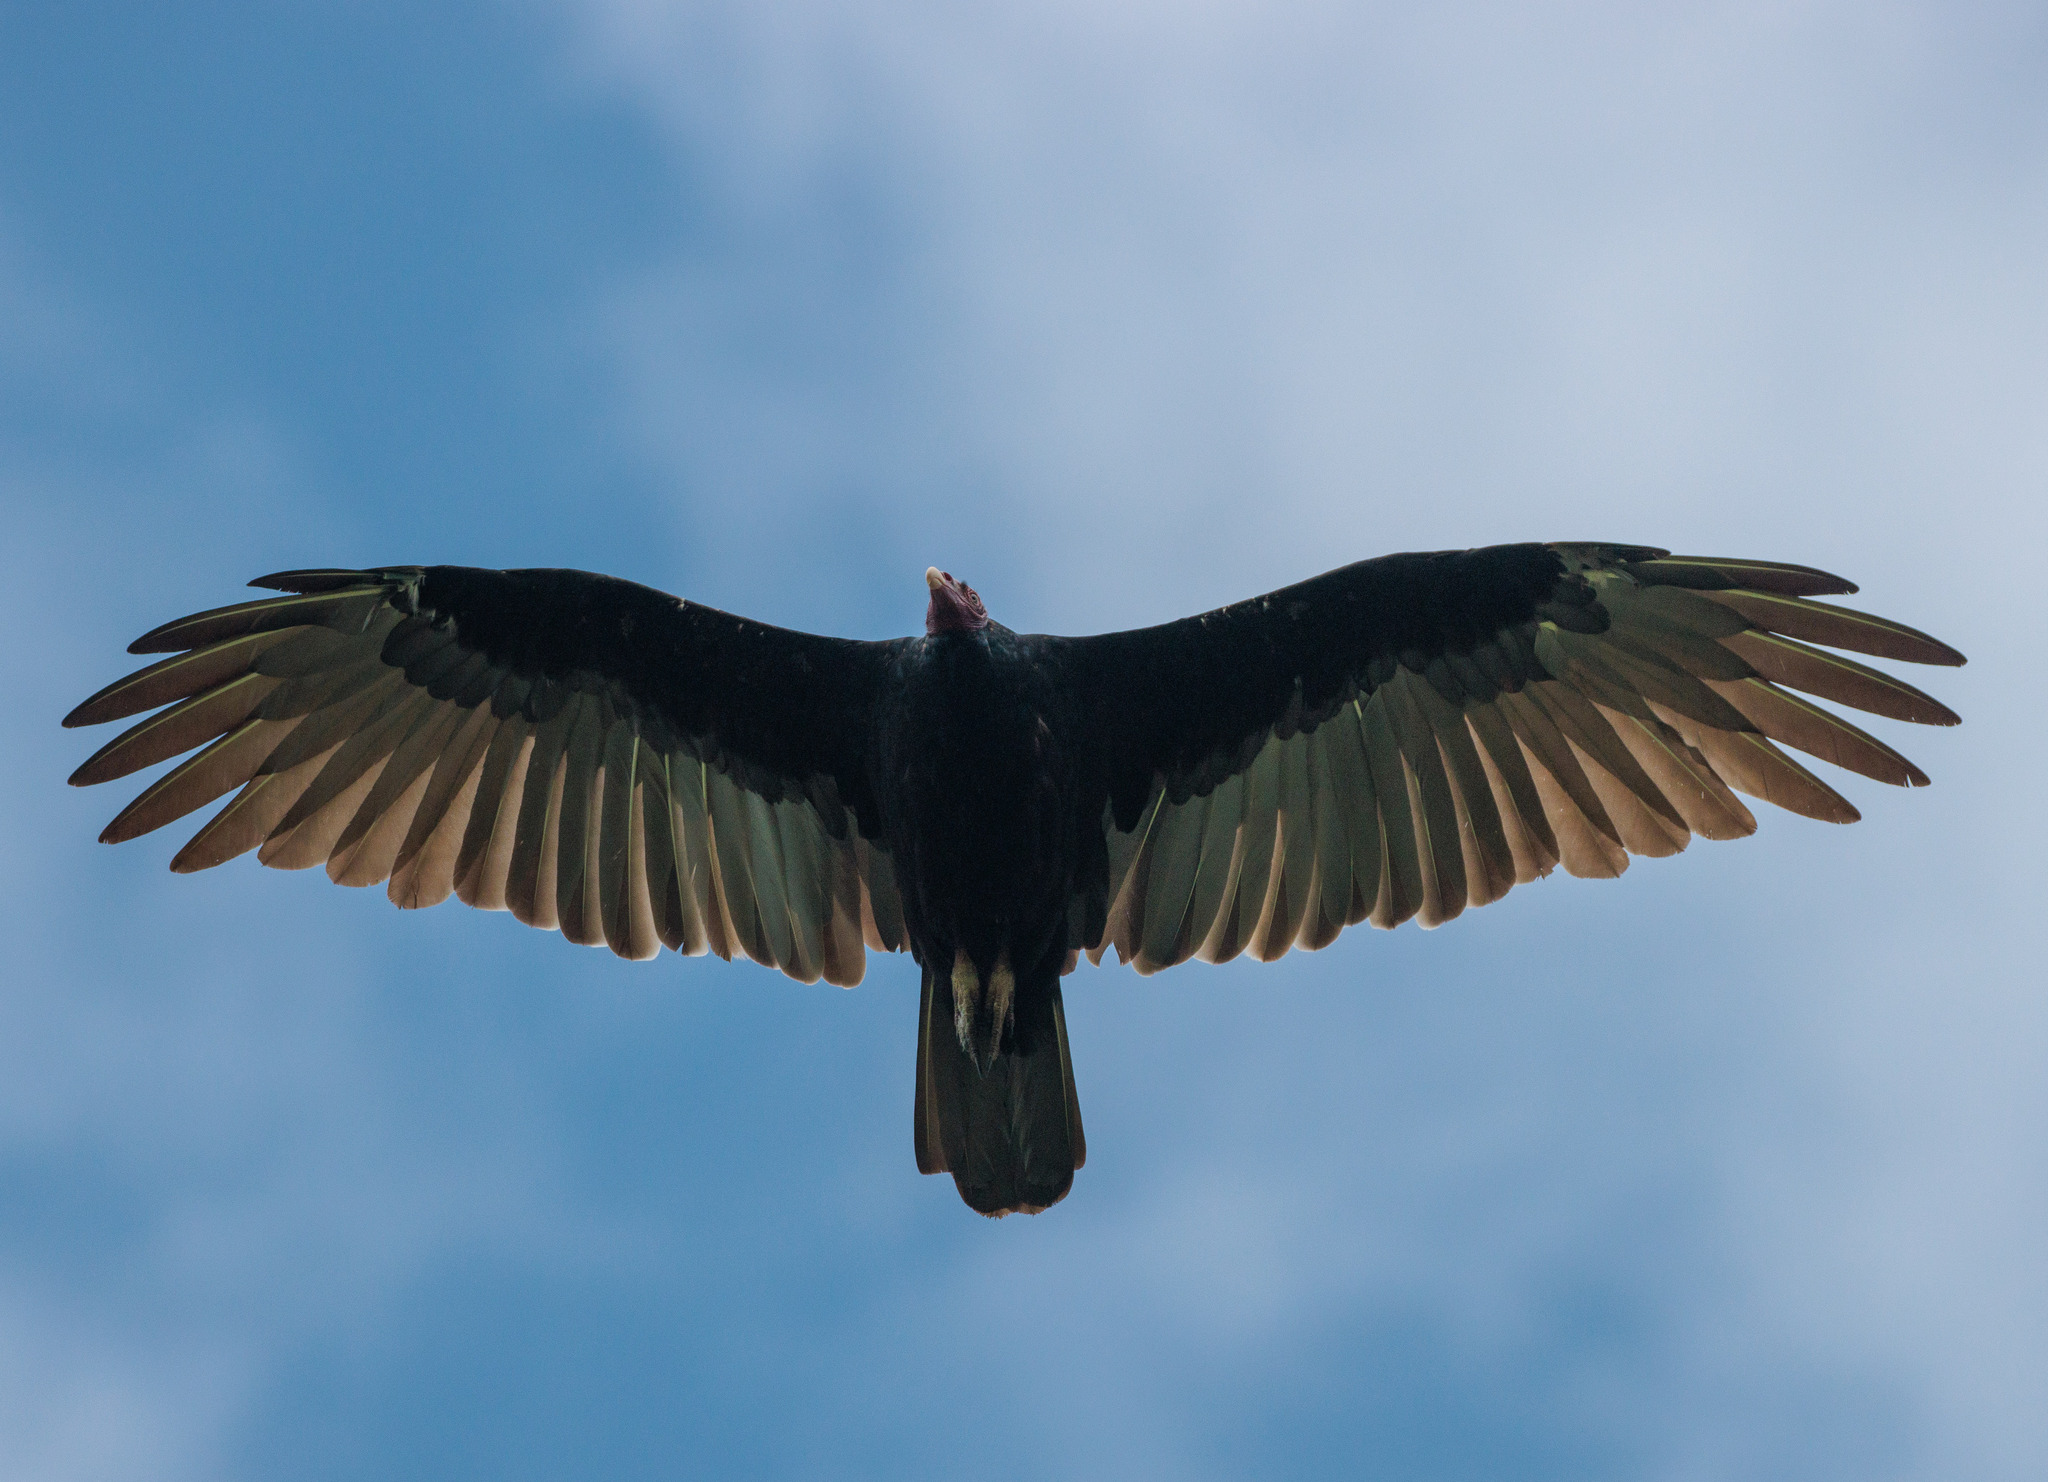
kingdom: Animalia
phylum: Chordata
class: Aves
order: Accipitriformes
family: Cathartidae
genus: Cathartes
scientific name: Cathartes aura
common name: Turkey vulture
